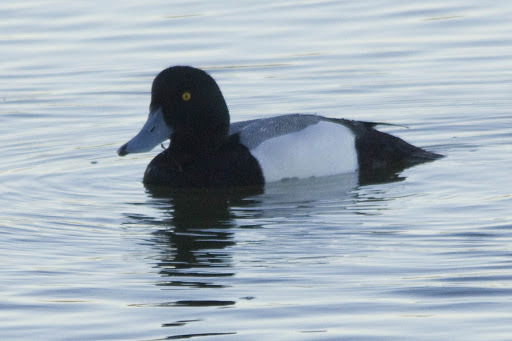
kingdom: Animalia
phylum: Chordata
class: Aves
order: Anseriformes
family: Anatidae
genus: Aythya
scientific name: Aythya marila
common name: Greater scaup
